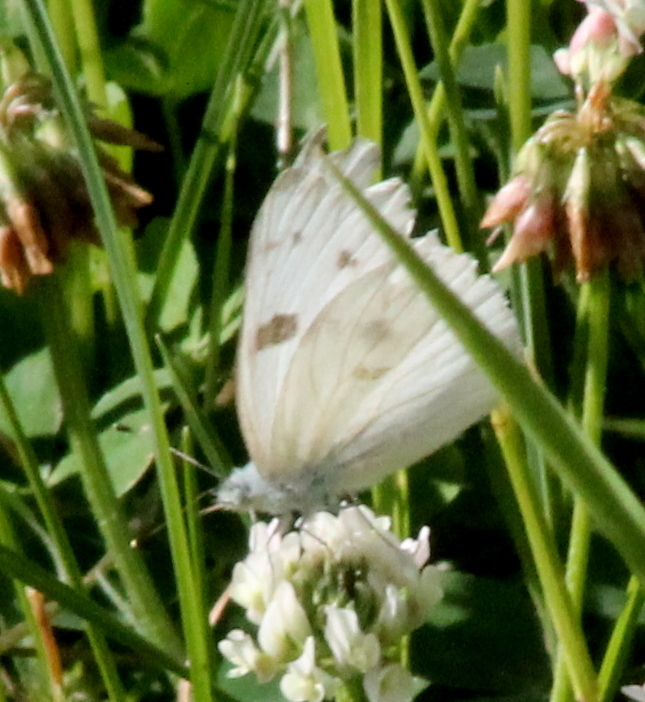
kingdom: Animalia
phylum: Arthropoda
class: Insecta
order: Lepidoptera
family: Pieridae
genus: Pontia
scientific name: Pontia protodice
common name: Checkered white
